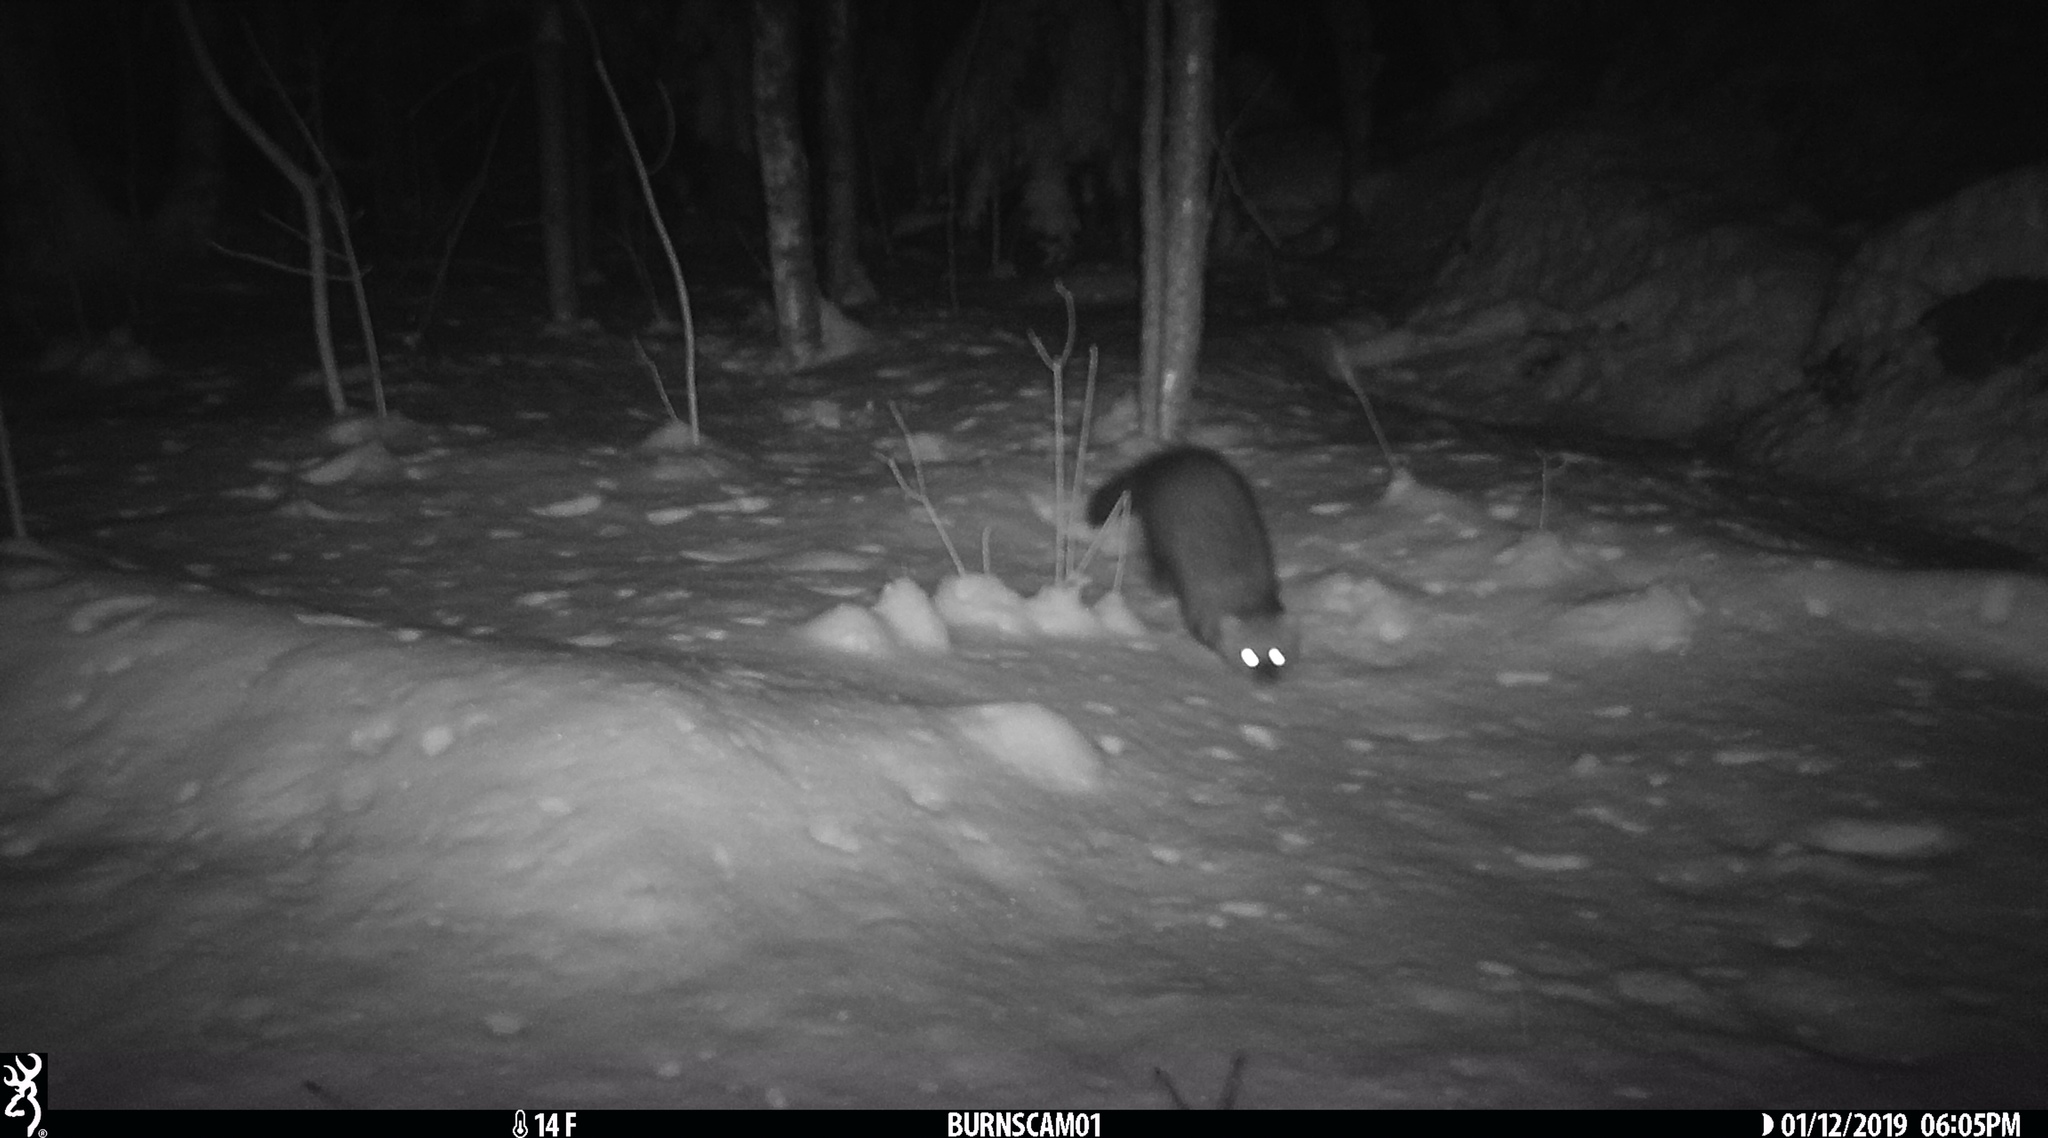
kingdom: Animalia
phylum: Chordata
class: Mammalia
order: Carnivora
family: Mustelidae
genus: Pekania
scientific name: Pekania pennanti
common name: Fisher
